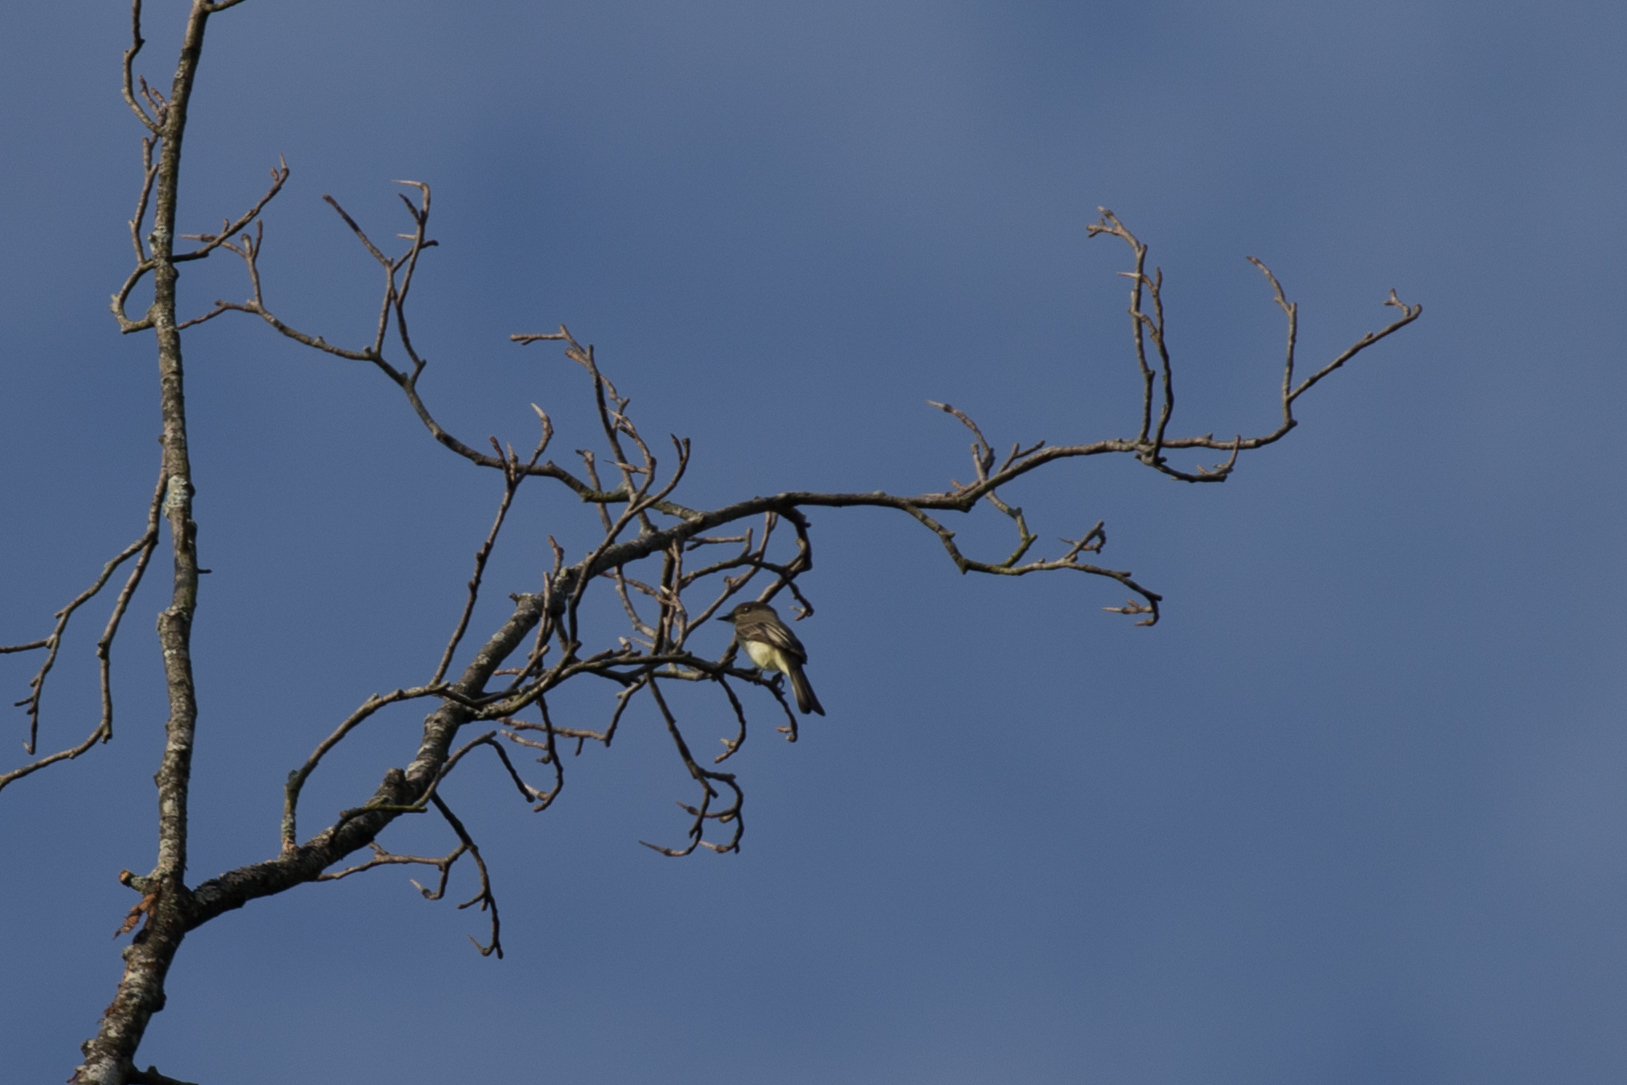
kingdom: Animalia
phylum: Chordata
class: Aves
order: Passeriformes
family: Tyrannidae
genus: Sayornis
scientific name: Sayornis phoebe
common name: Eastern phoebe
